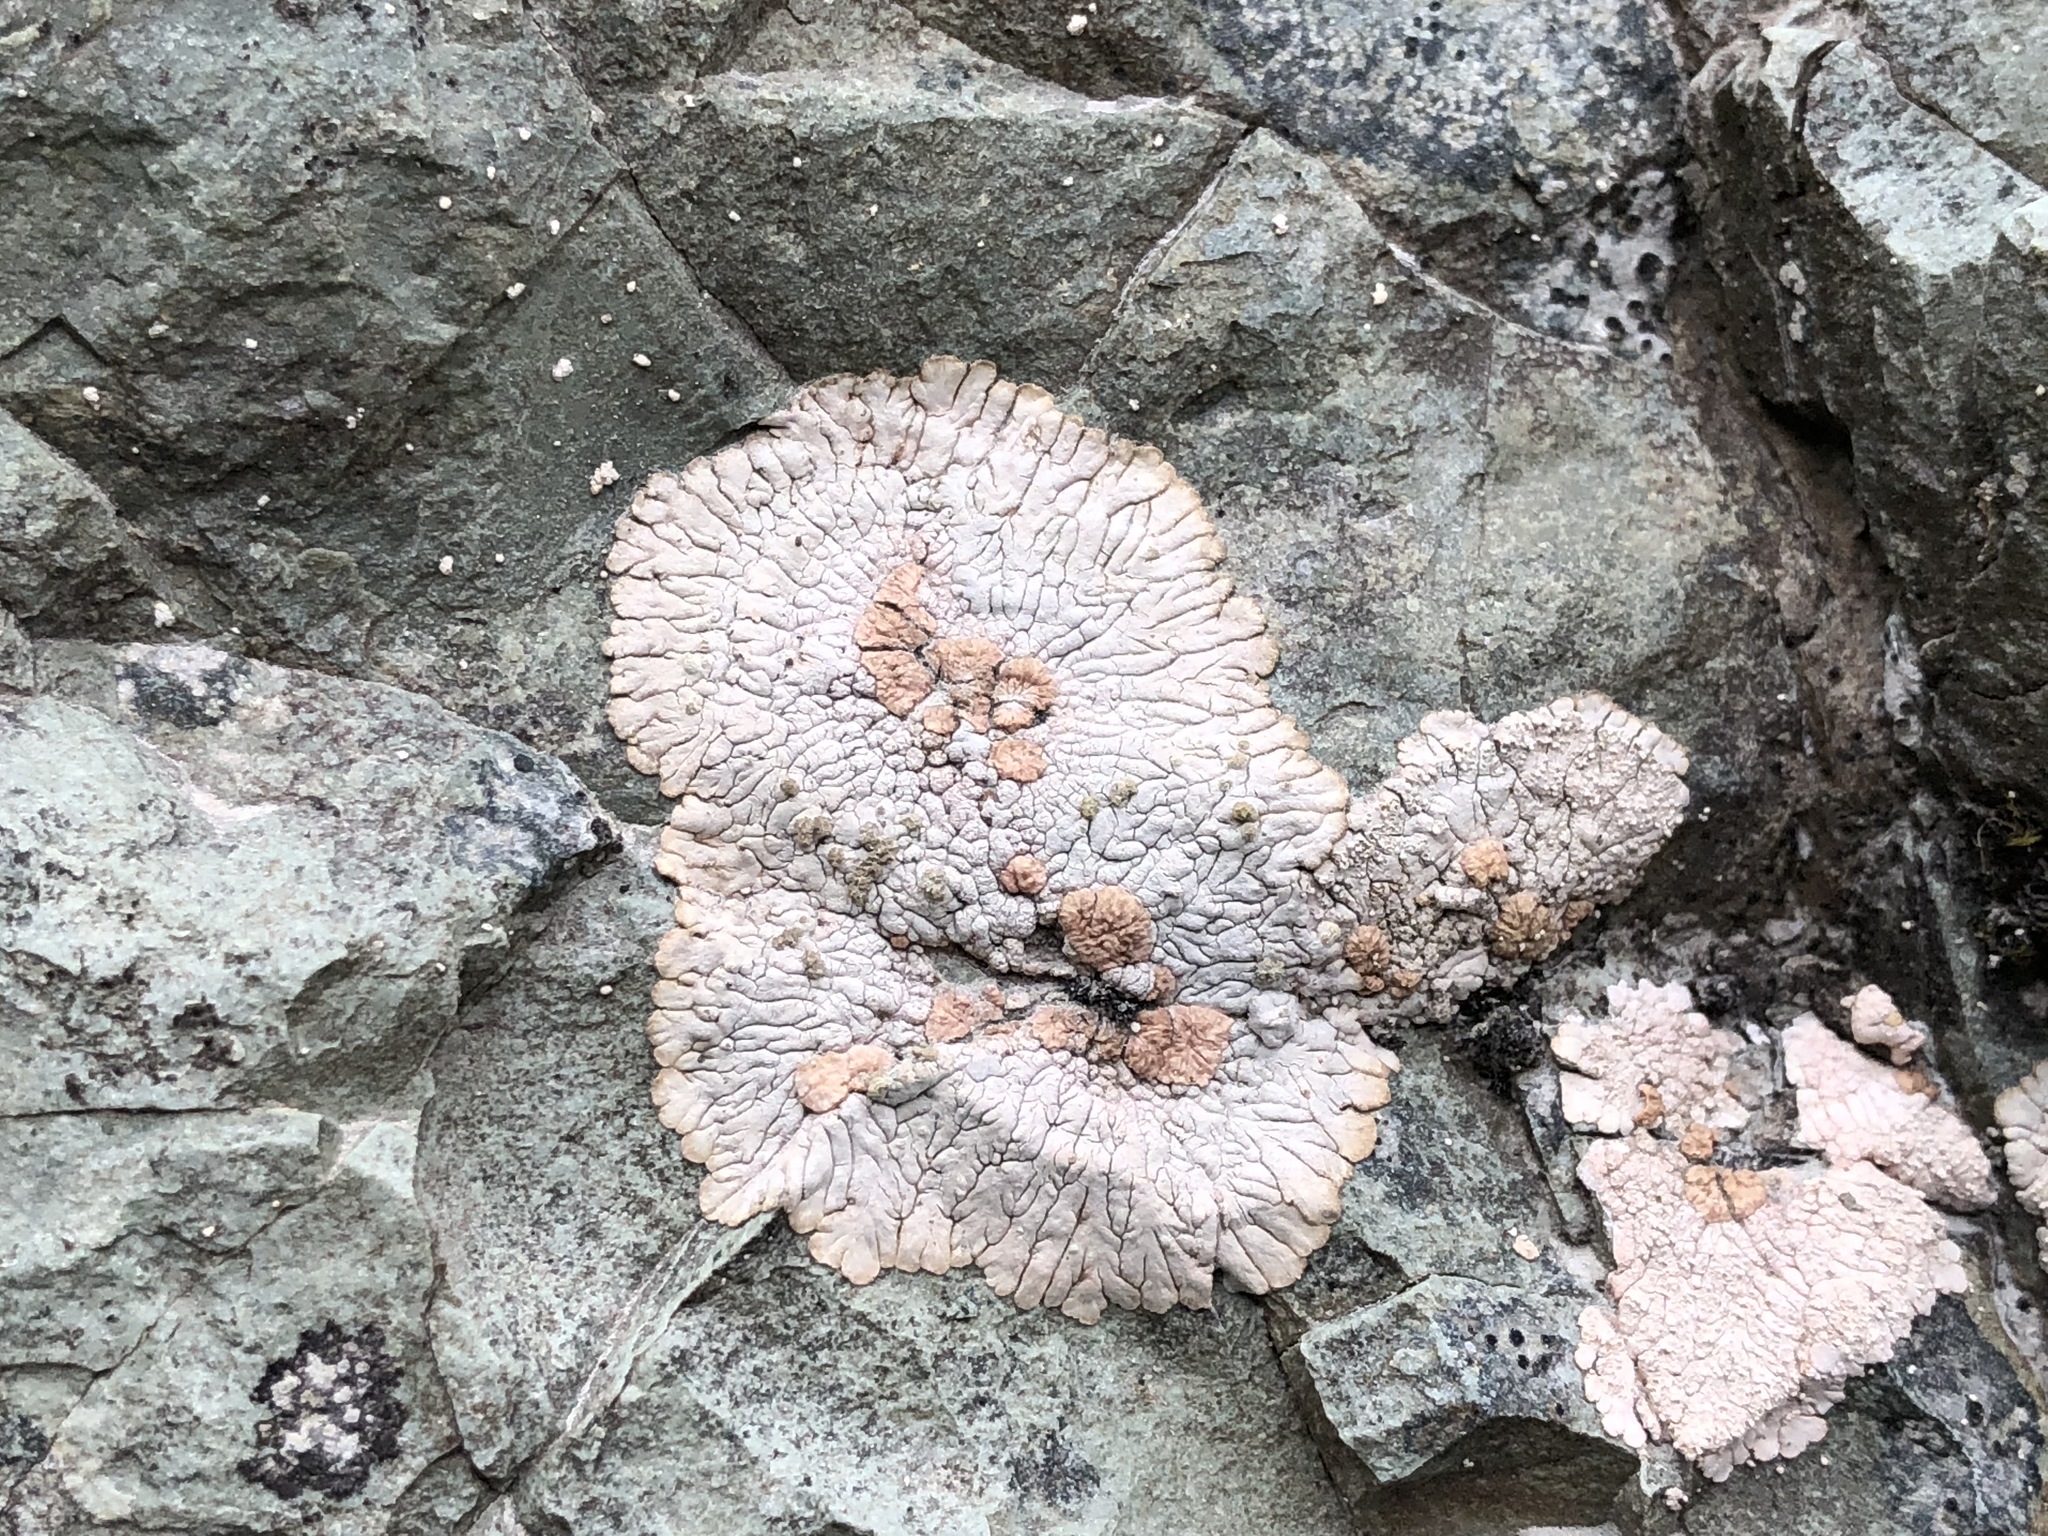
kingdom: Fungi
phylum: Ascomycota
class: Lecanoromycetes
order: Baeomycetales
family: Trapeliaceae
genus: Placopsis
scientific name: Placopsis lambii
